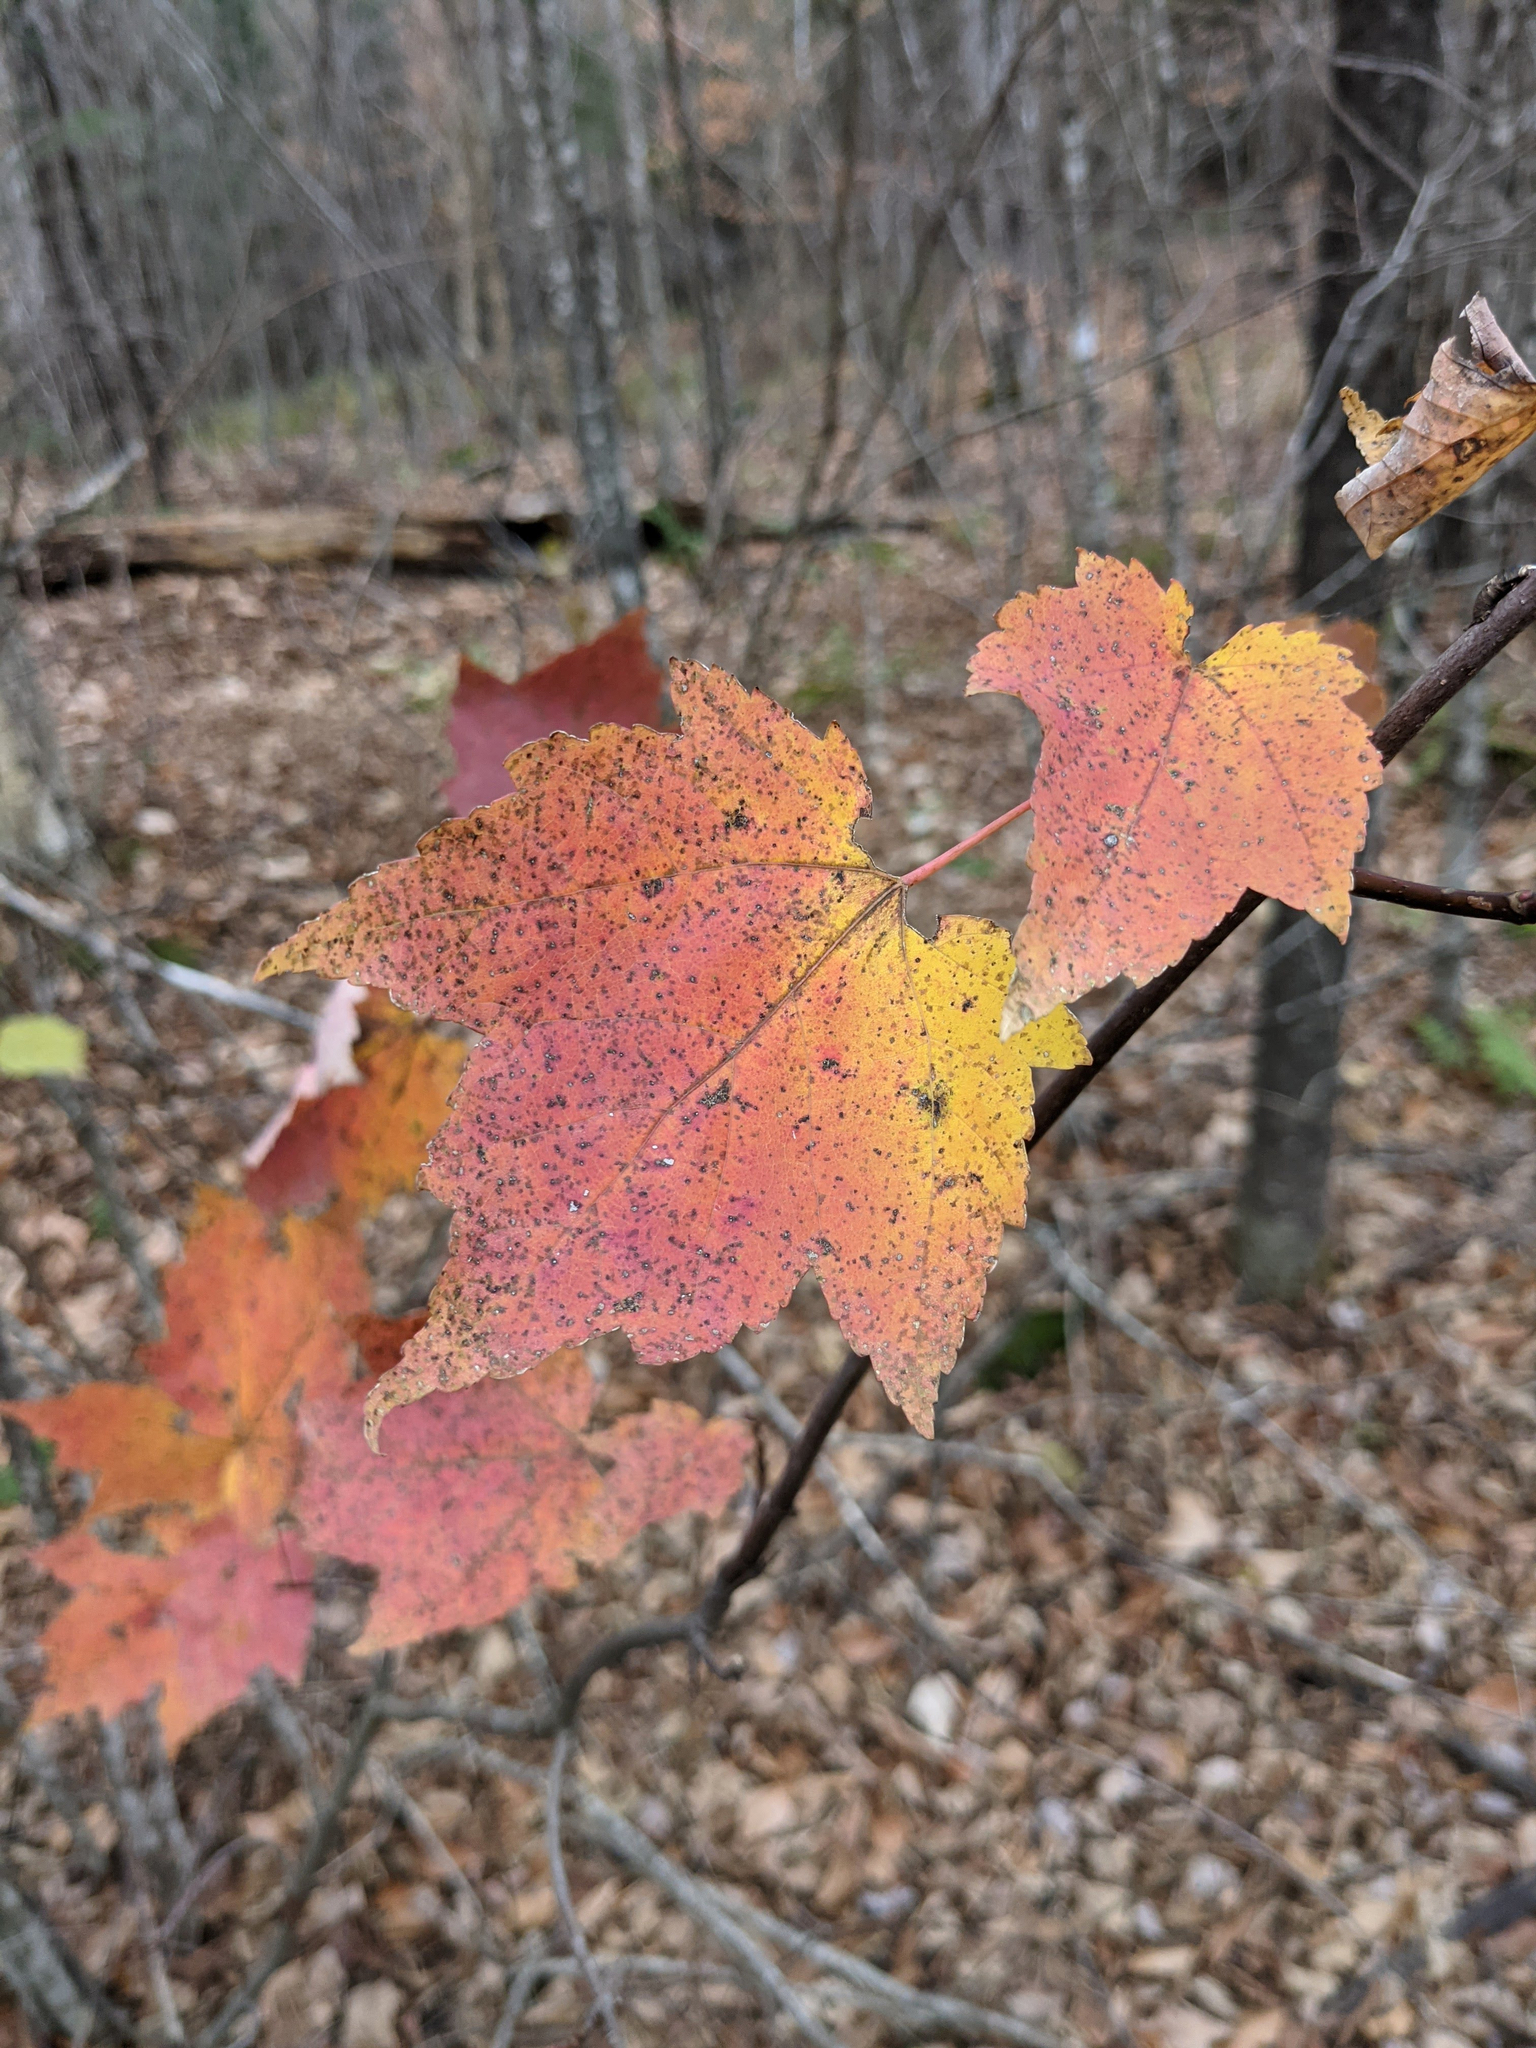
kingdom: Plantae
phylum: Tracheophyta
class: Magnoliopsida
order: Sapindales
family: Sapindaceae
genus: Acer
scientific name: Acer rubrum
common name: Red maple
